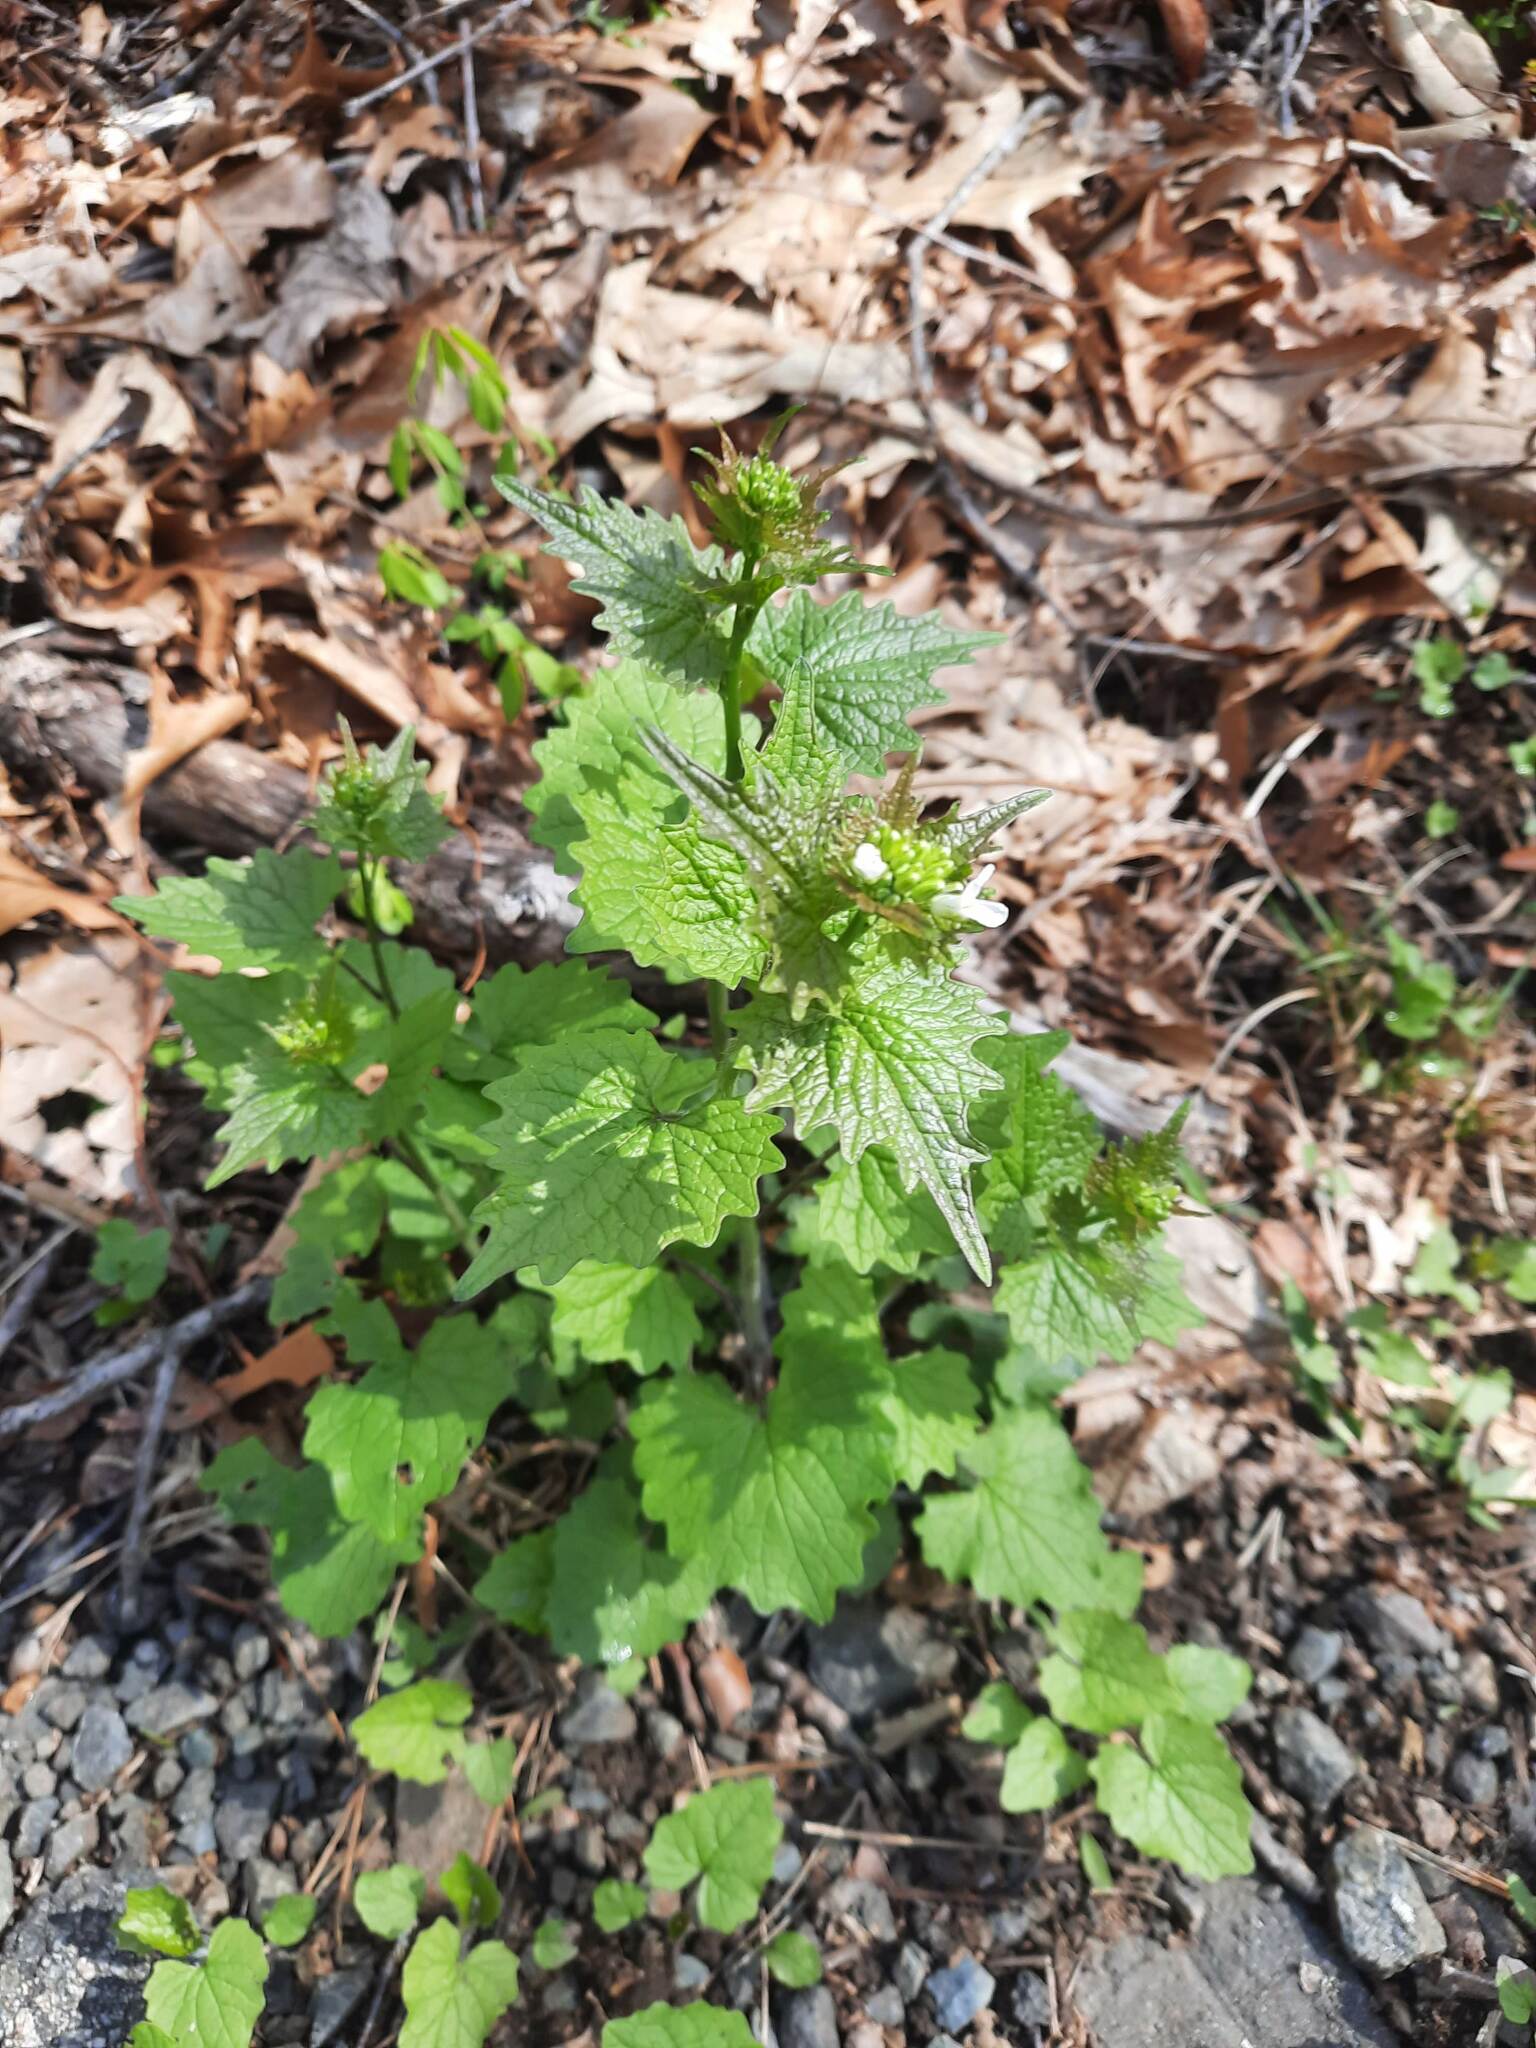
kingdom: Plantae
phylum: Tracheophyta
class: Magnoliopsida
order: Brassicales
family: Brassicaceae
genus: Alliaria
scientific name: Alliaria petiolata
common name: Garlic mustard
